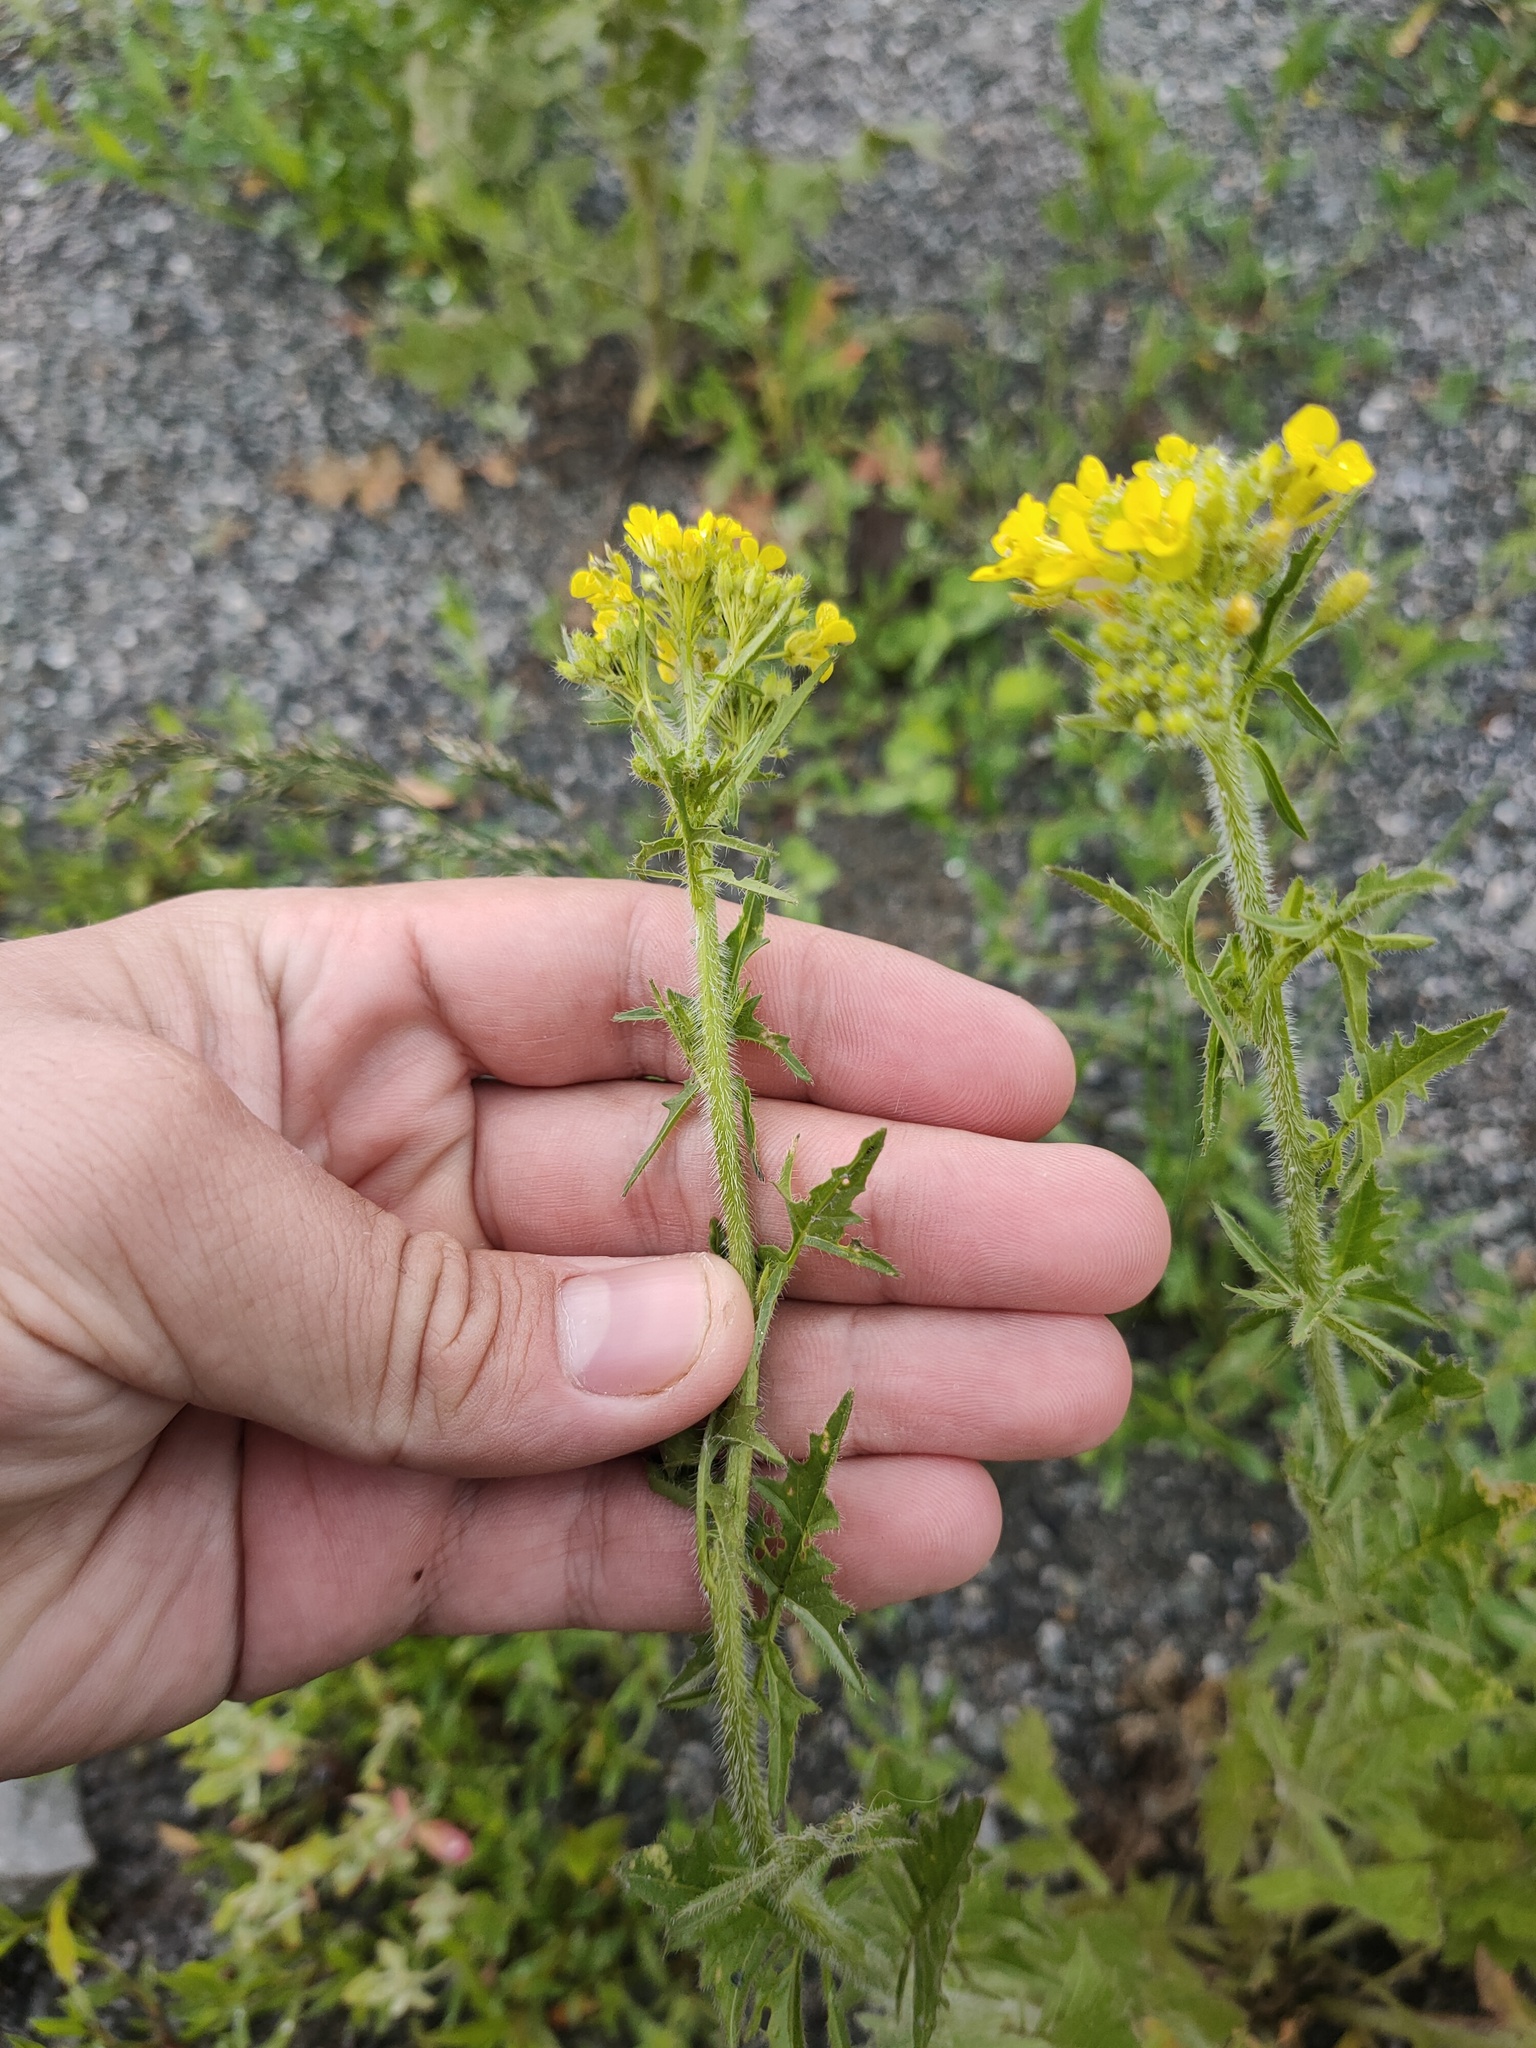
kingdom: Plantae
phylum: Tracheophyta
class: Magnoliopsida
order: Brassicales
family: Brassicaceae
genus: Sisymbrium
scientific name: Sisymbrium loeselii
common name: False london-rocket
